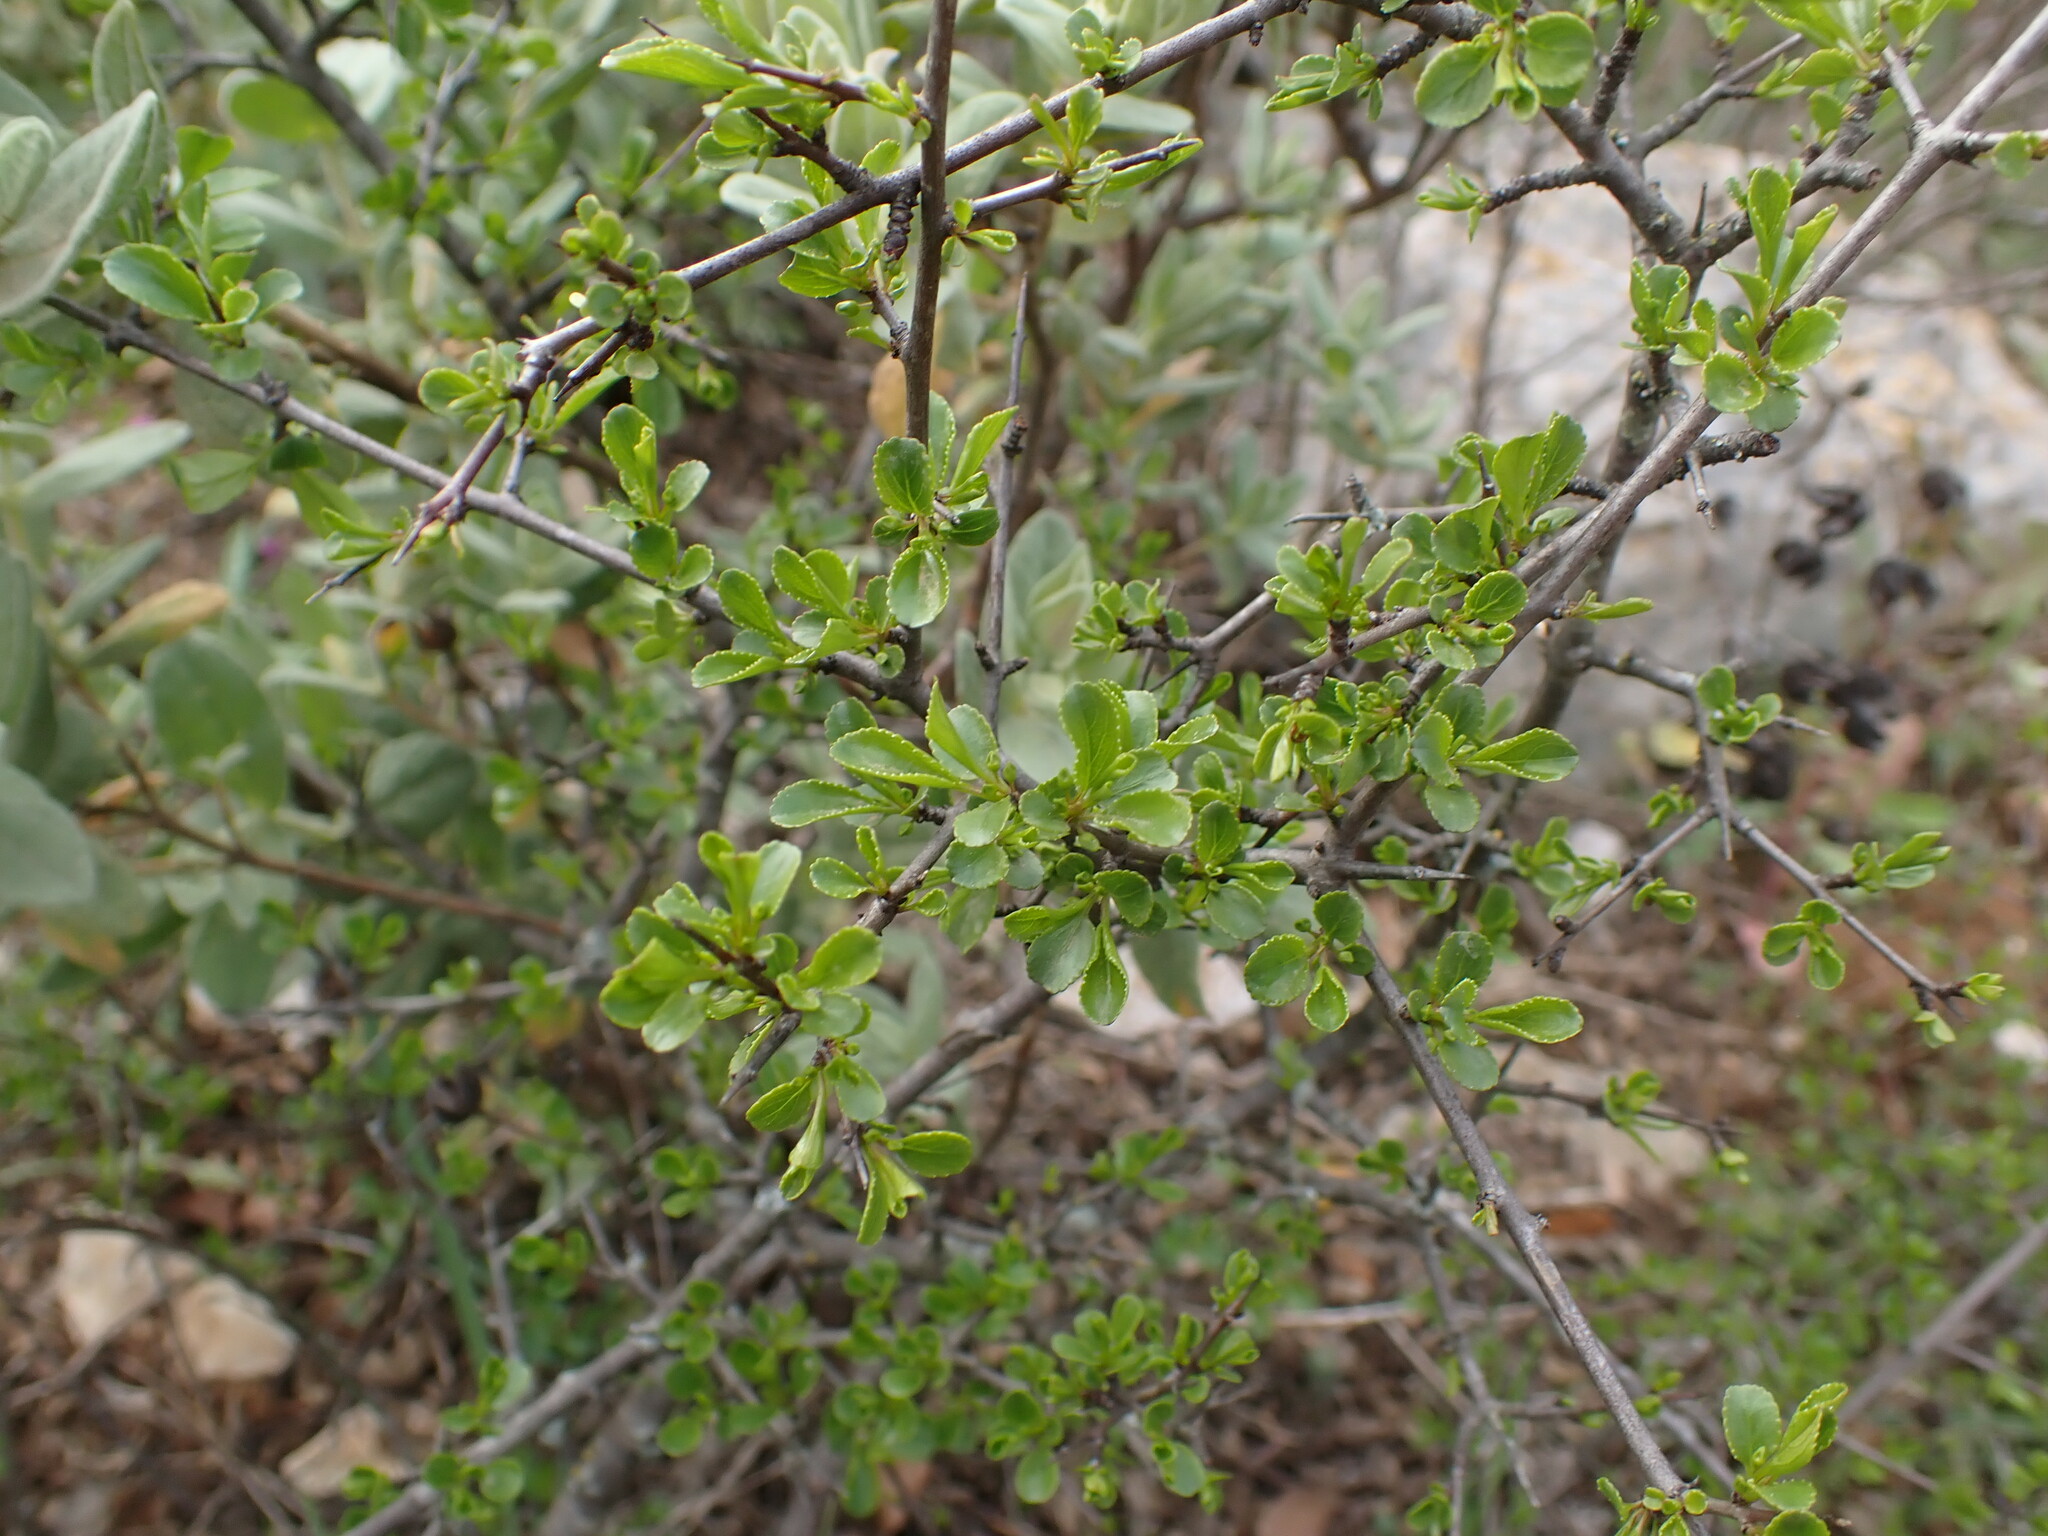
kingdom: Plantae
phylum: Tracheophyta
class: Magnoliopsida
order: Rosales
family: Rhamnaceae
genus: Rhamnus
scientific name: Rhamnus saxatilis
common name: Rock buckthorn
